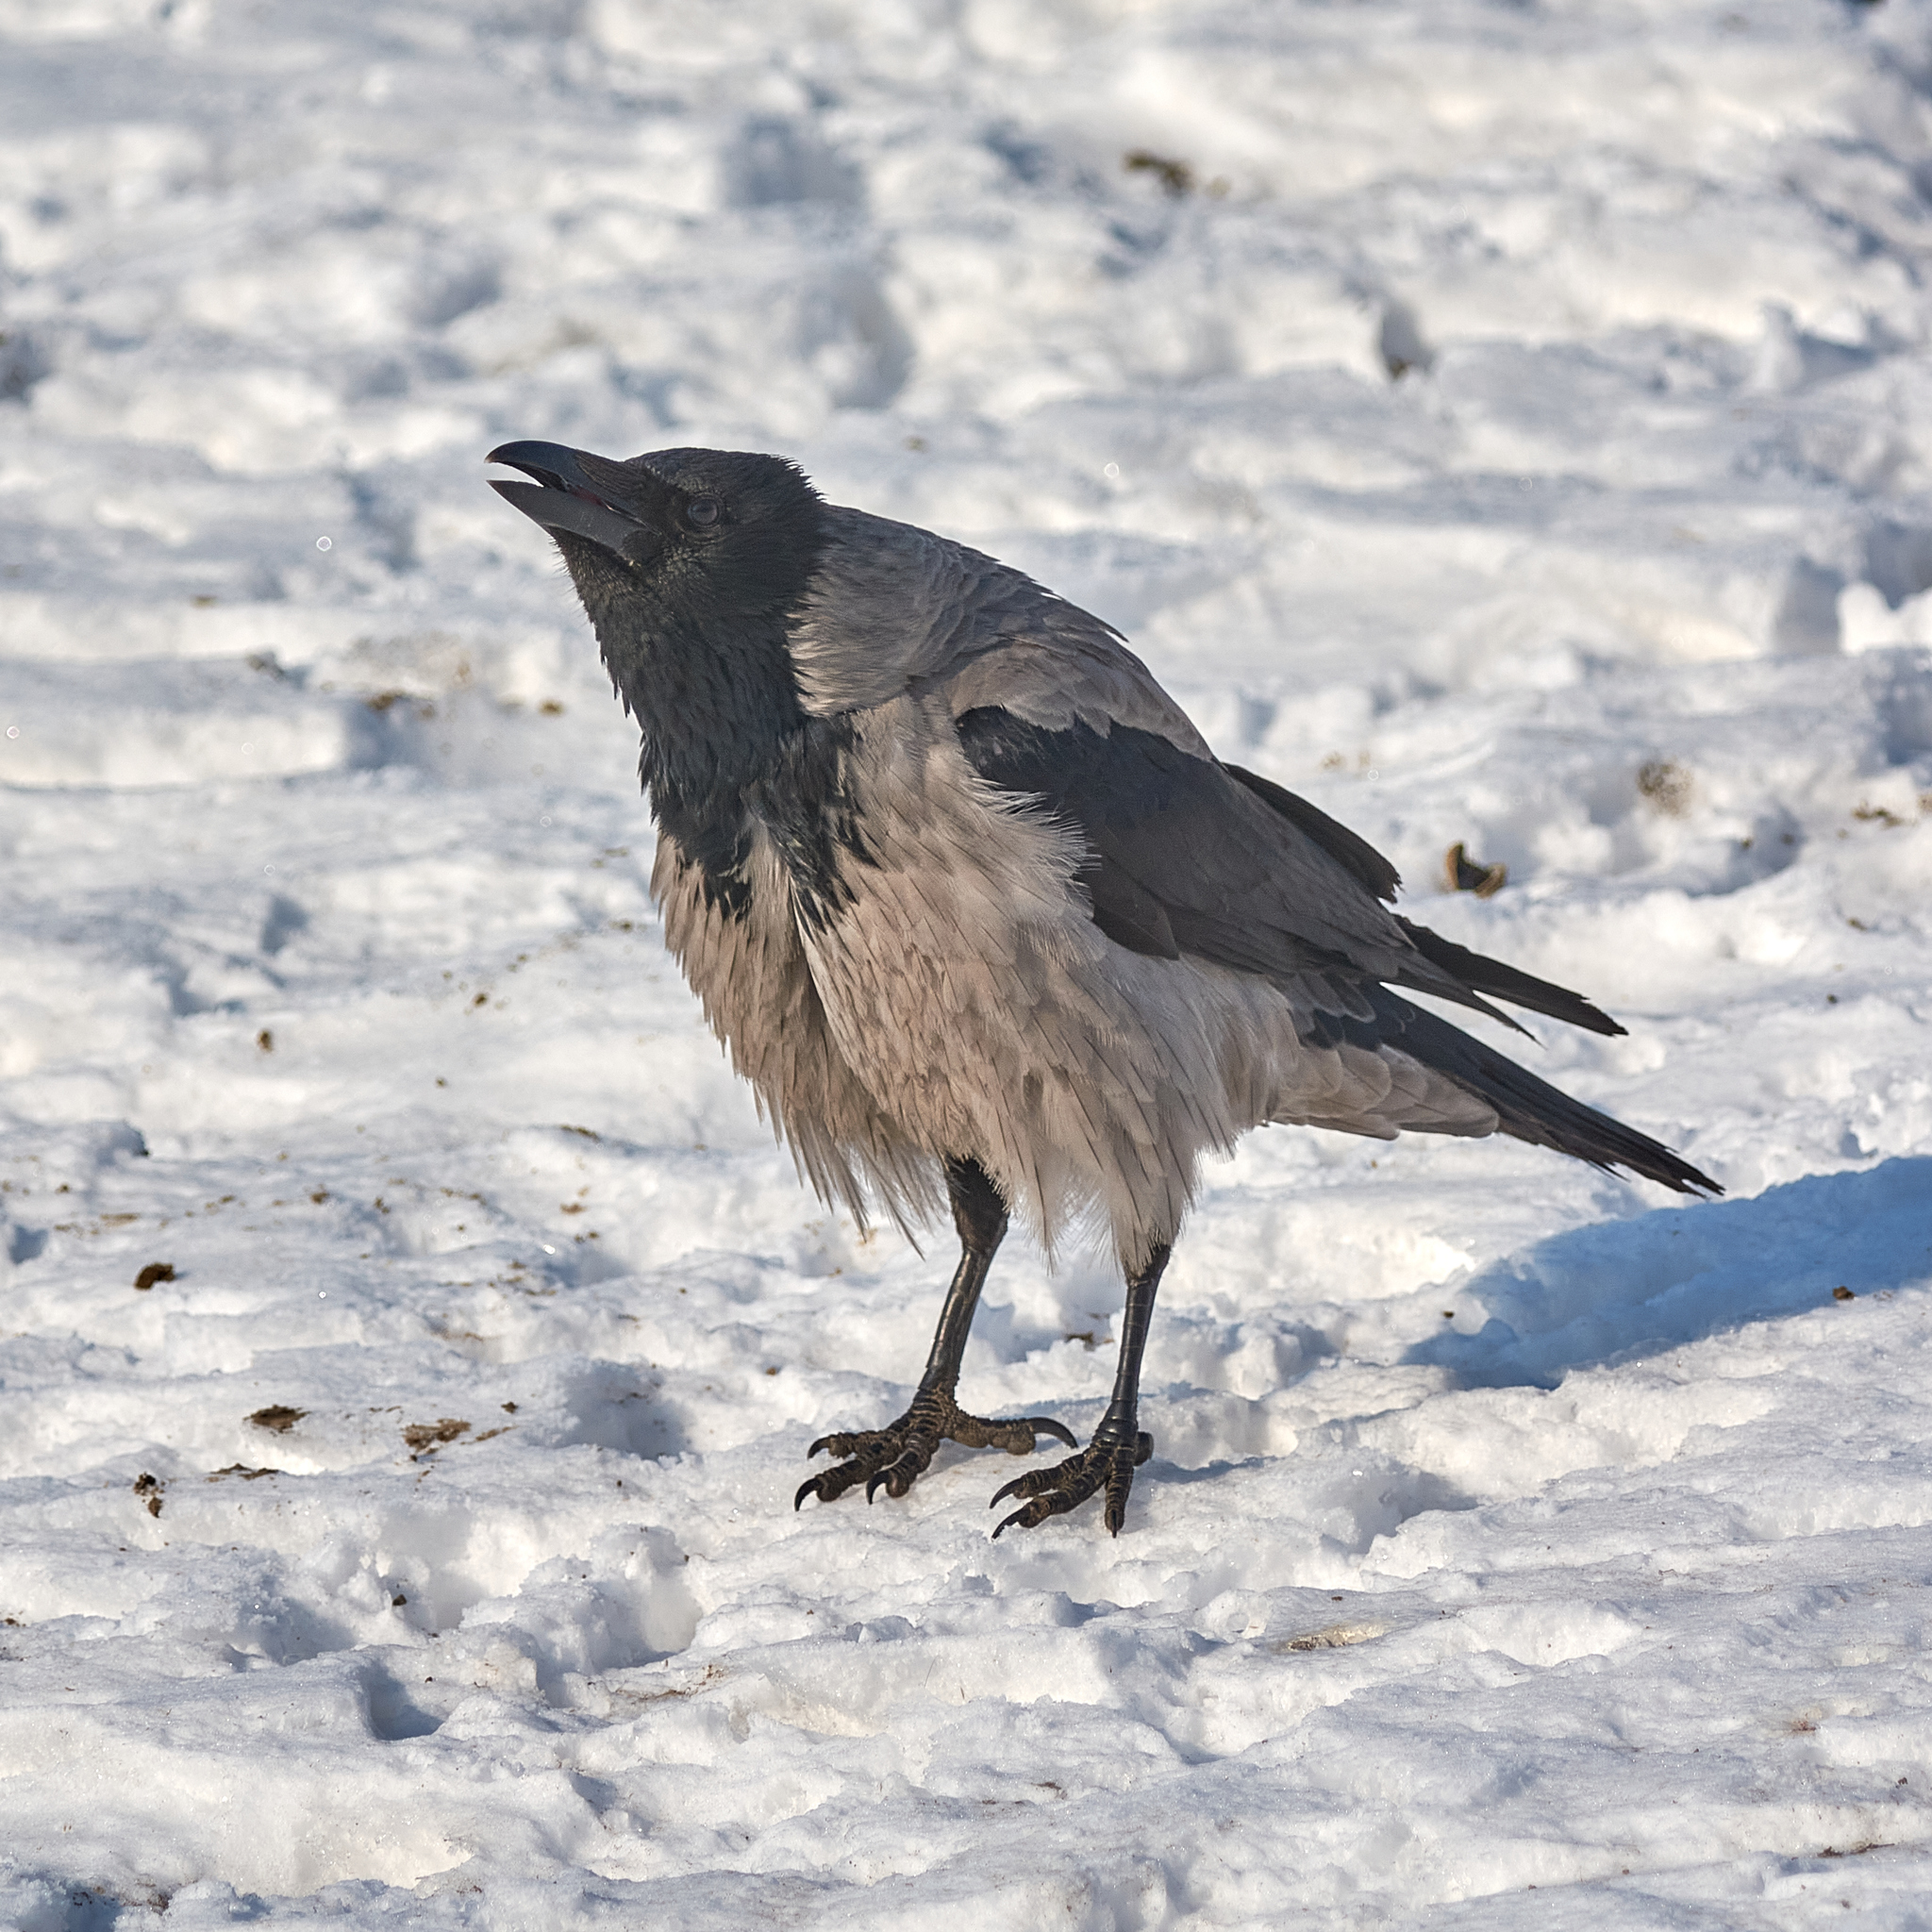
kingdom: Animalia
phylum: Chordata
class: Aves
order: Passeriformes
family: Corvidae
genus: Corvus
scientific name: Corvus cornix
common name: Hooded crow
